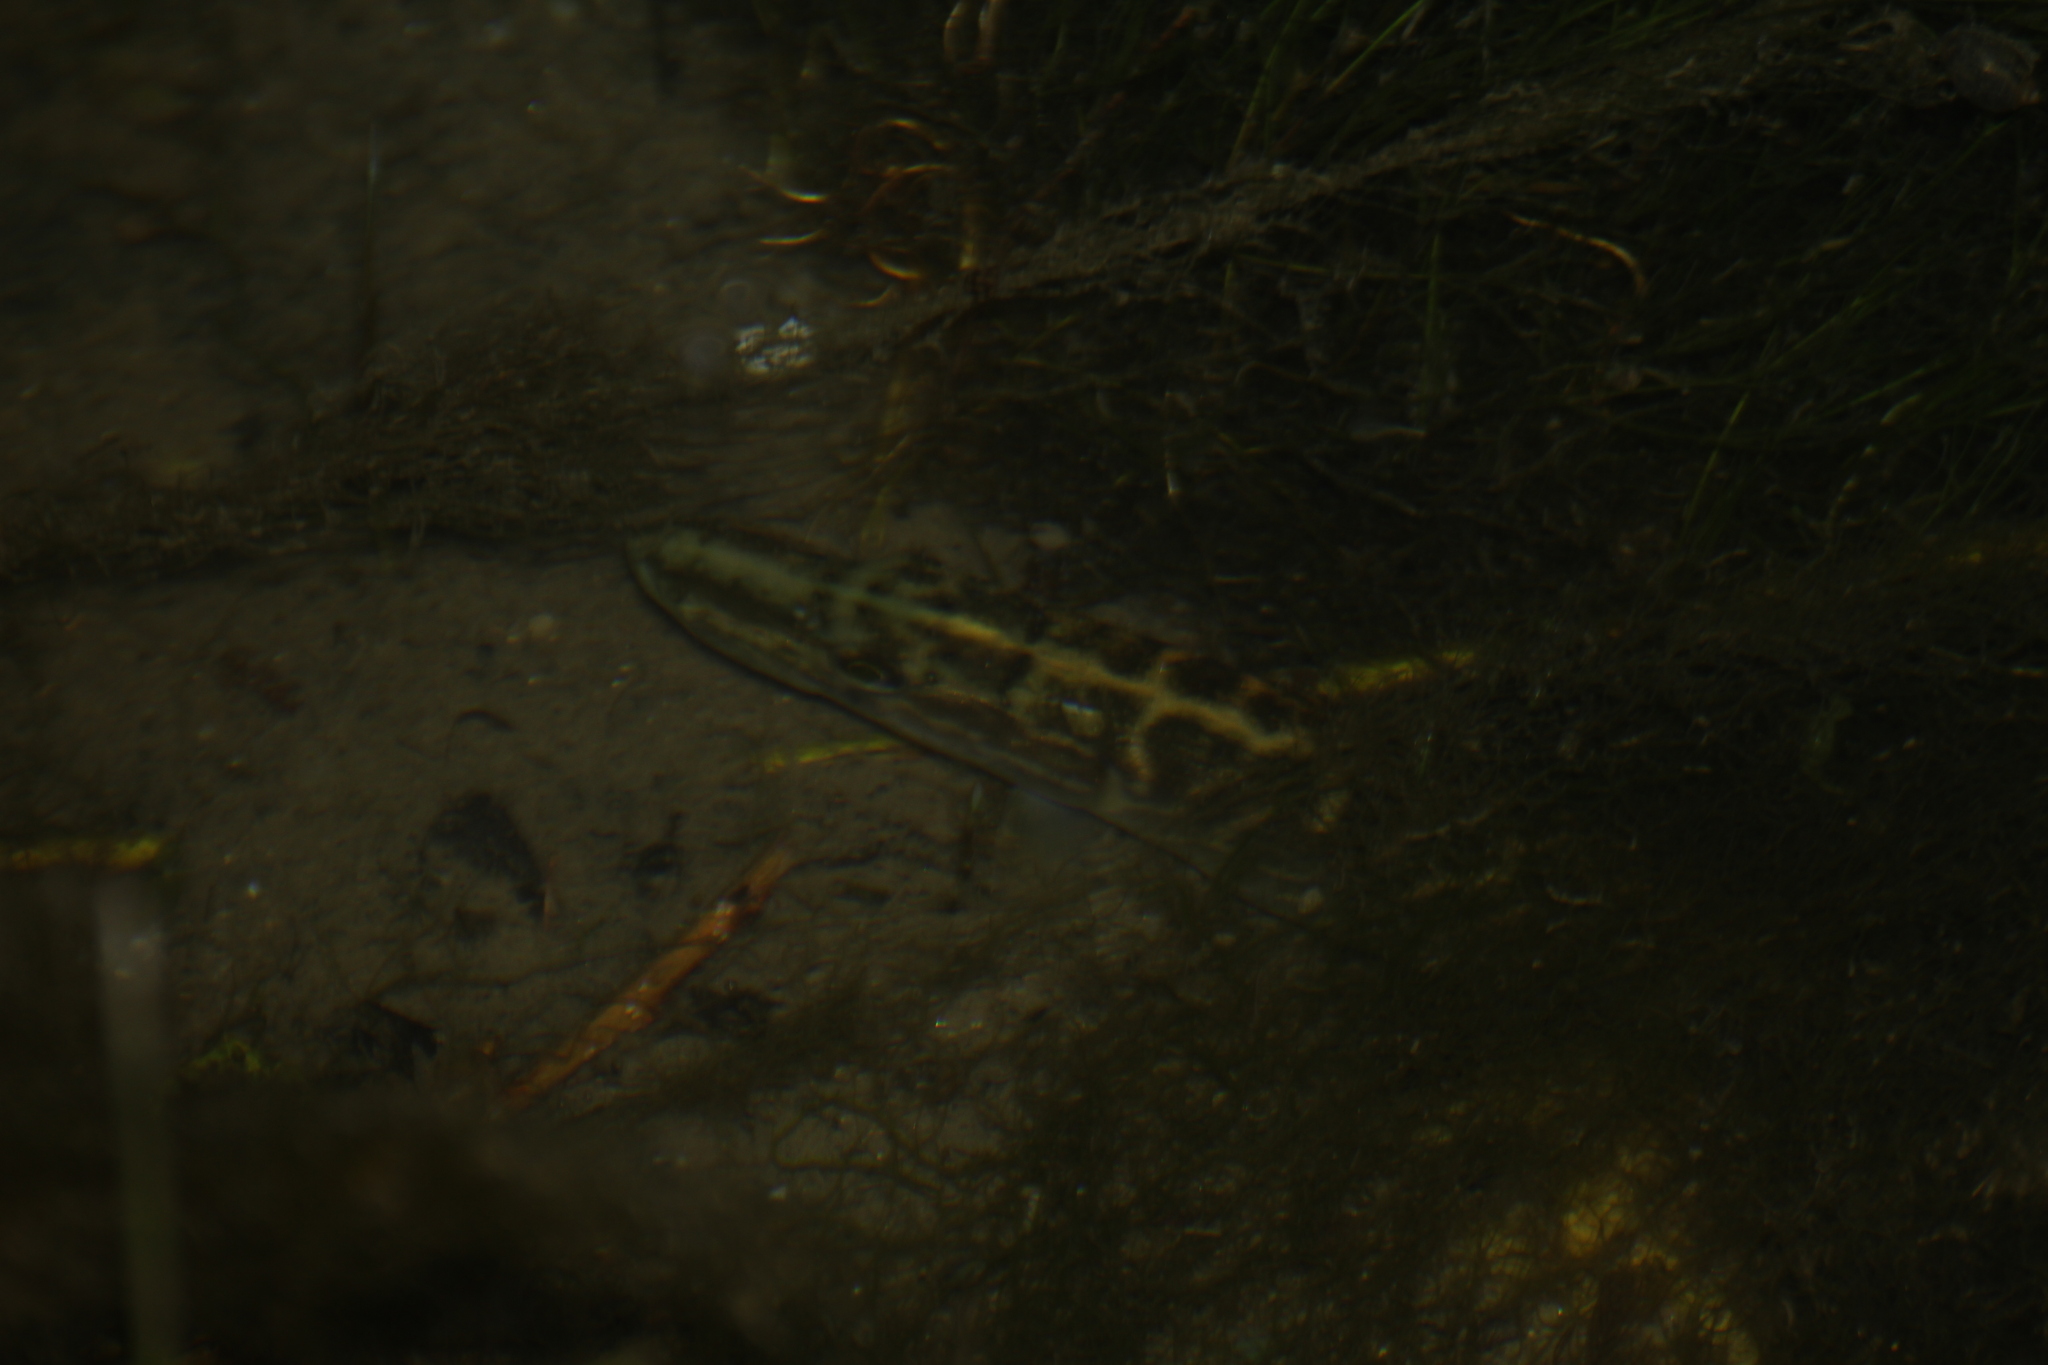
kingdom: Animalia
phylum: Chordata
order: Esociformes
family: Esocidae
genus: Esox
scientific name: Esox lucius
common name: Northern pike
